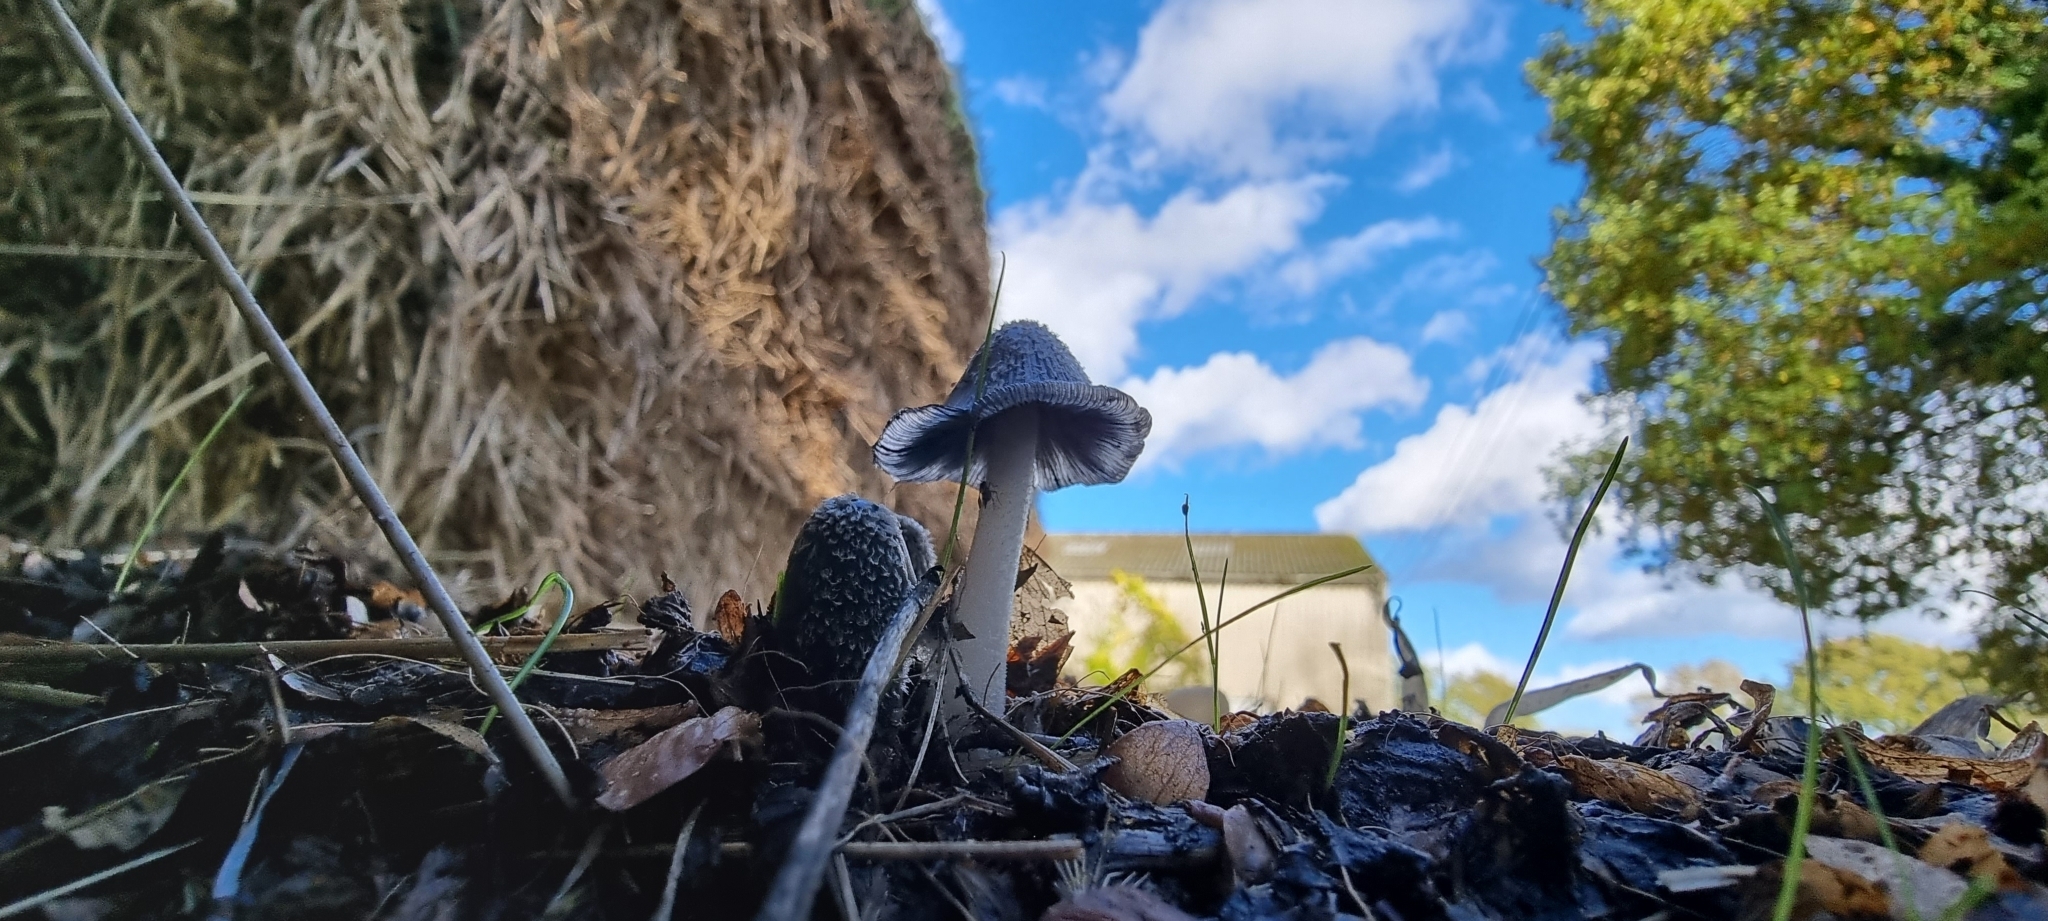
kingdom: Fungi
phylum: Basidiomycota
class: Agaricomycetes
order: Agaricales
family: Psathyrellaceae
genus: Coprinopsis
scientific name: Coprinopsis picacea
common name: Magpie inkcap
